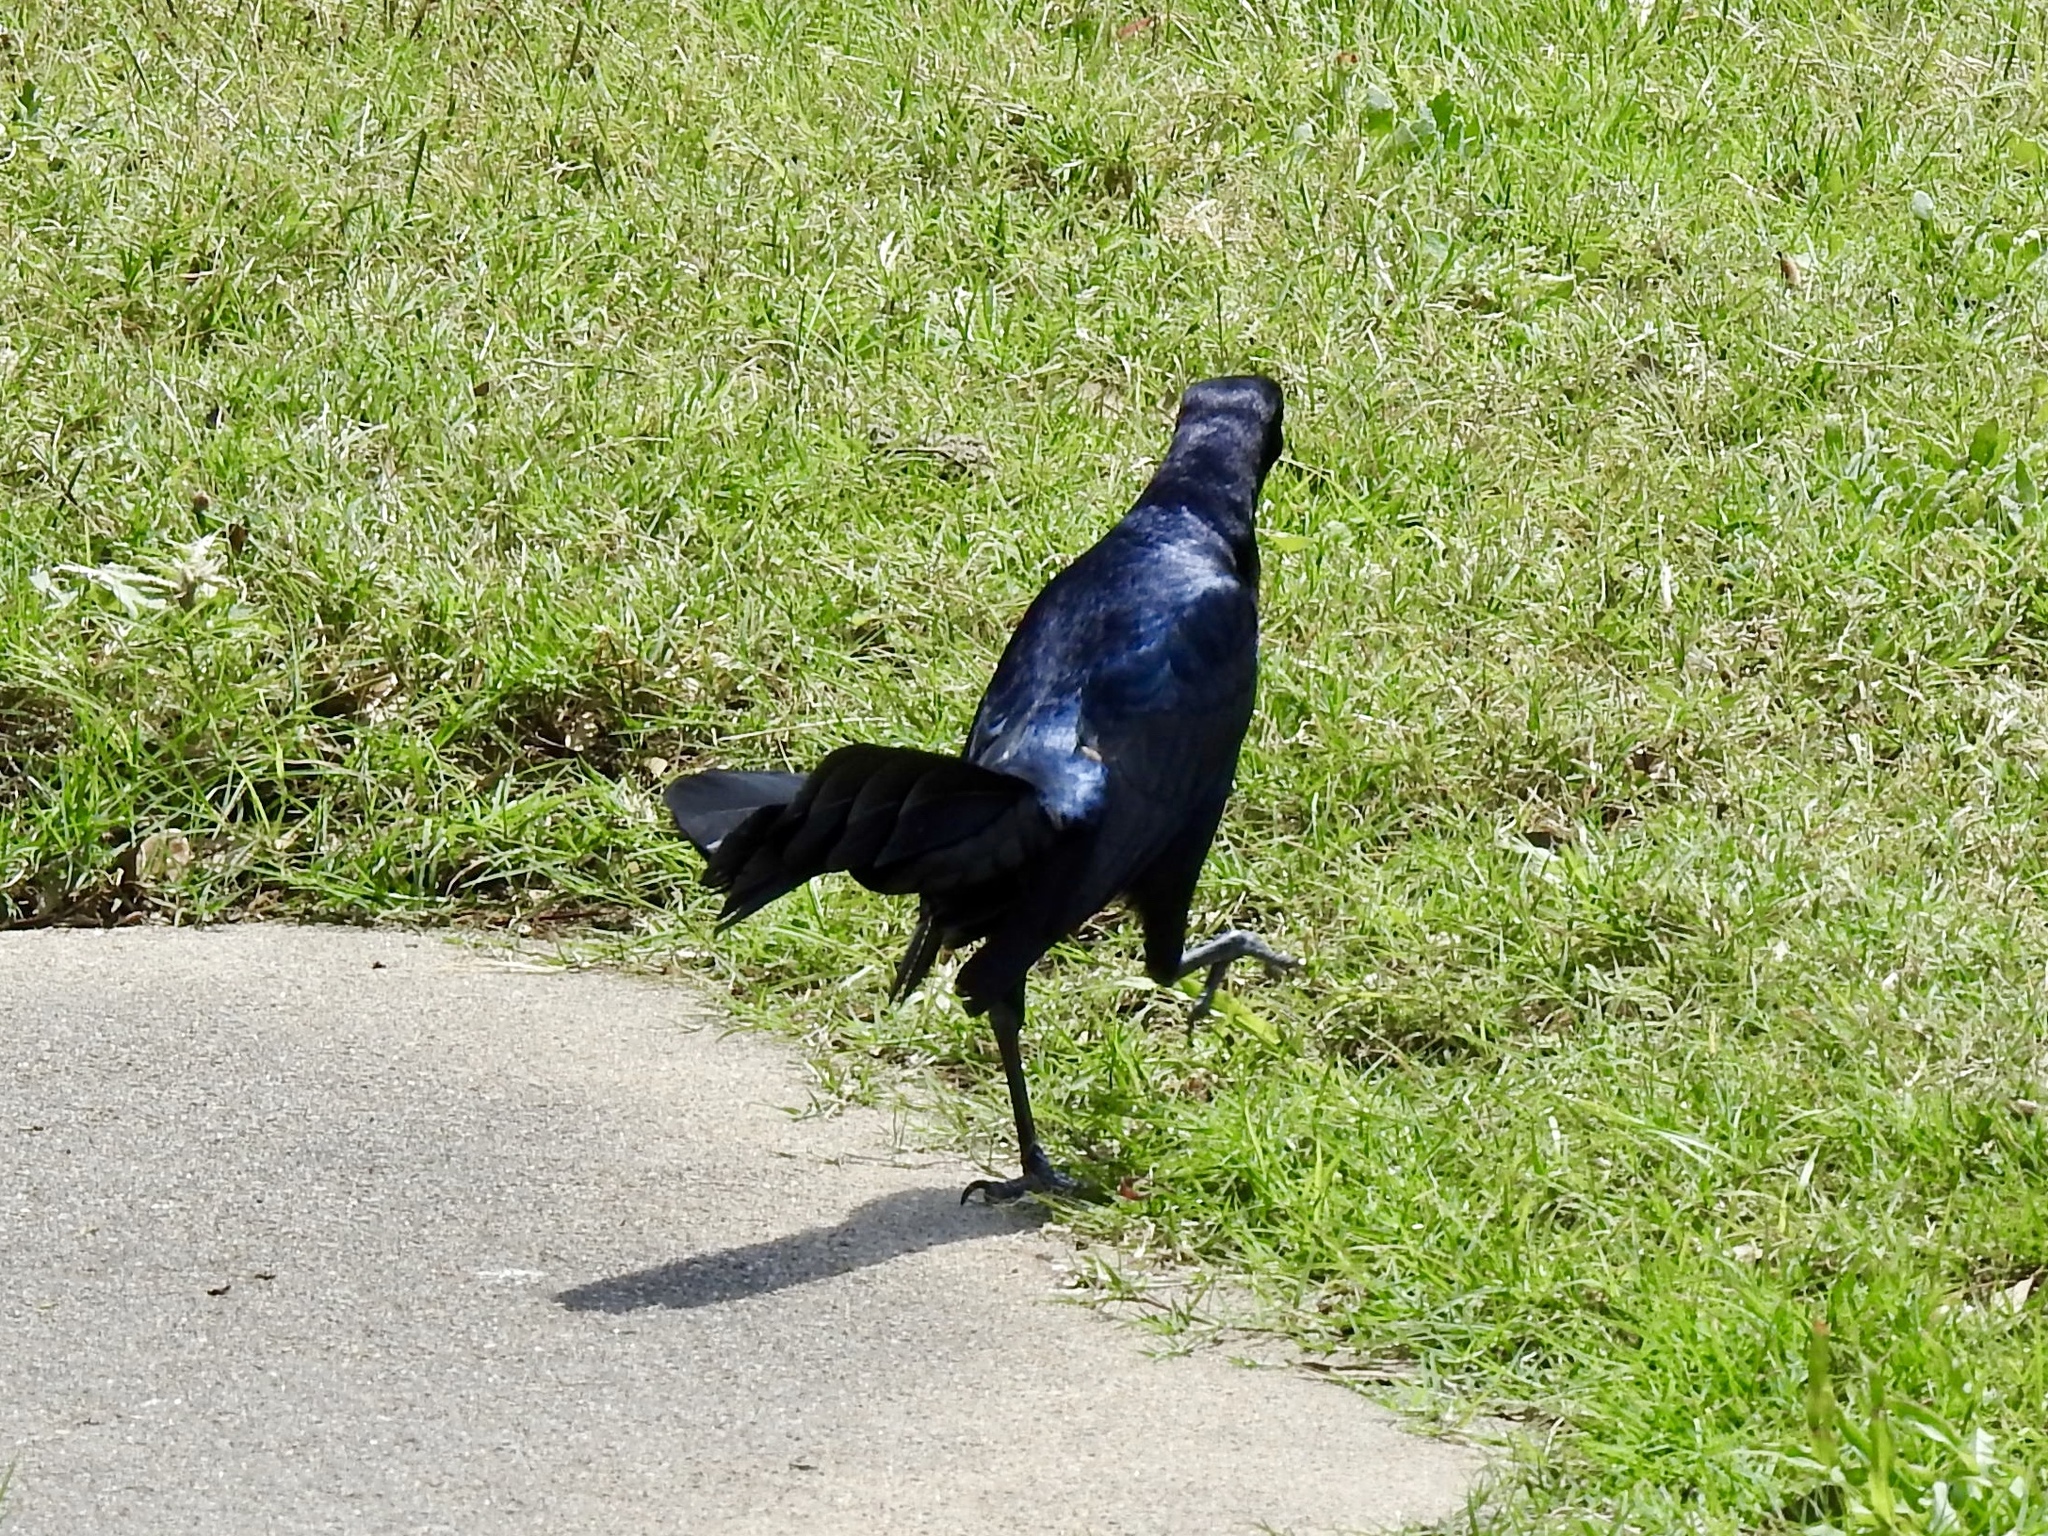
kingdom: Animalia
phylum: Chordata
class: Aves
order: Passeriformes
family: Icteridae
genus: Quiscalus
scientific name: Quiscalus mexicanus
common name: Great-tailed grackle
